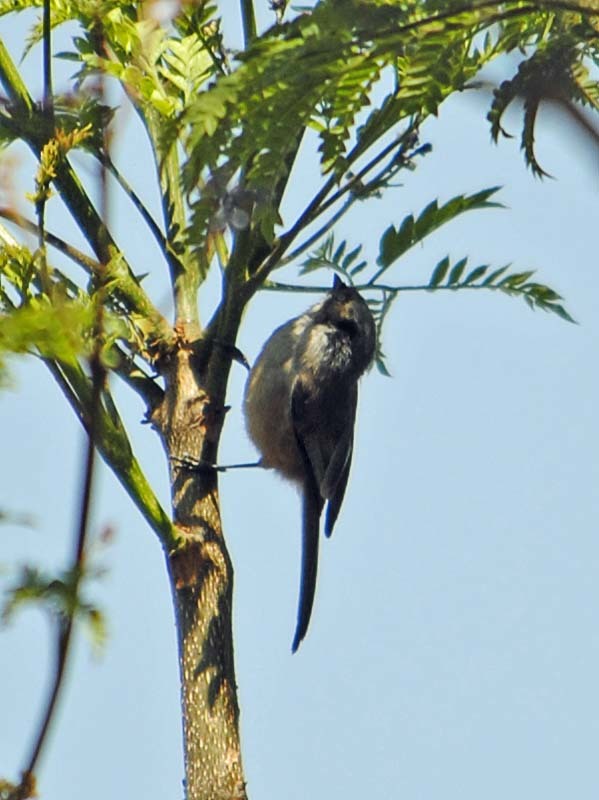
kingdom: Animalia
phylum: Chordata
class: Aves
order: Passeriformes
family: Aegithalidae
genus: Psaltriparus
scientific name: Psaltriparus minimus
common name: American bushtit
